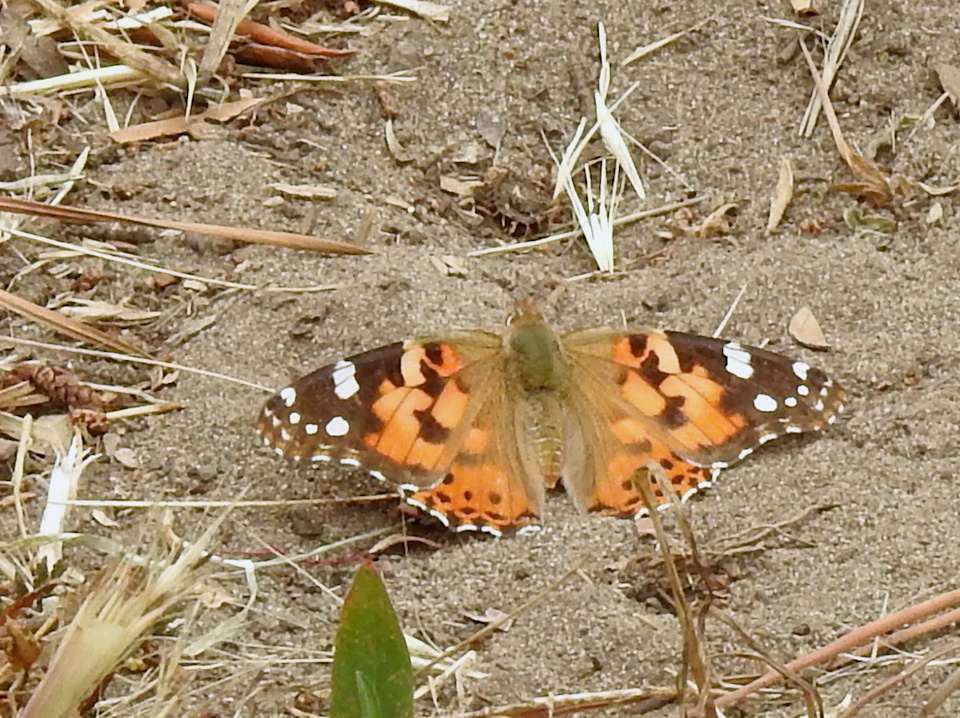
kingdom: Animalia
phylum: Arthropoda
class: Insecta
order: Lepidoptera
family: Nymphalidae
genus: Vanessa
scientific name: Vanessa cardui
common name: Painted lady
